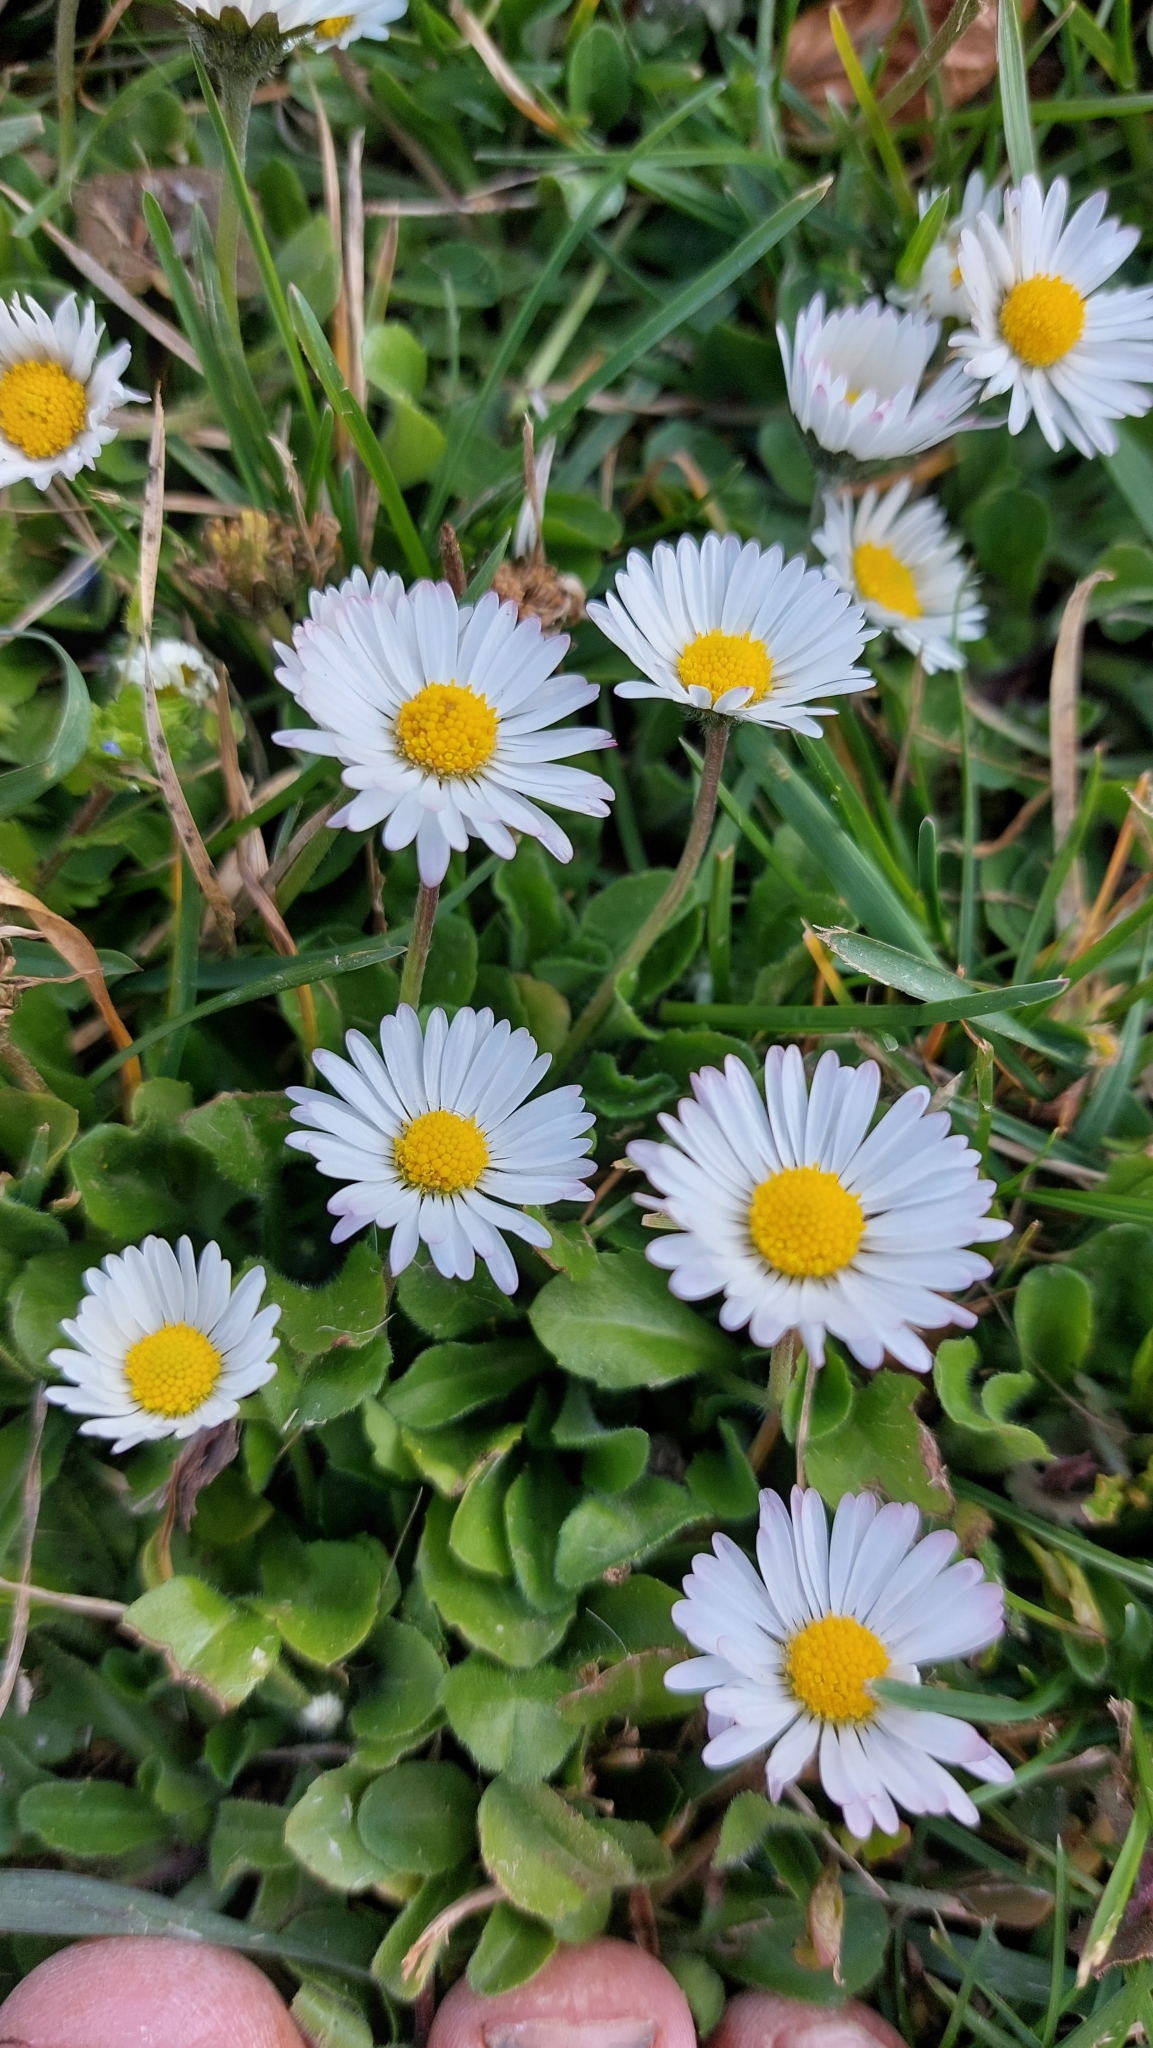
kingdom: Plantae
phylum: Tracheophyta
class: Magnoliopsida
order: Asterales
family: Asteraceae
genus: Bellis
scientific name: Bellis perennis
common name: Lawndaisy
